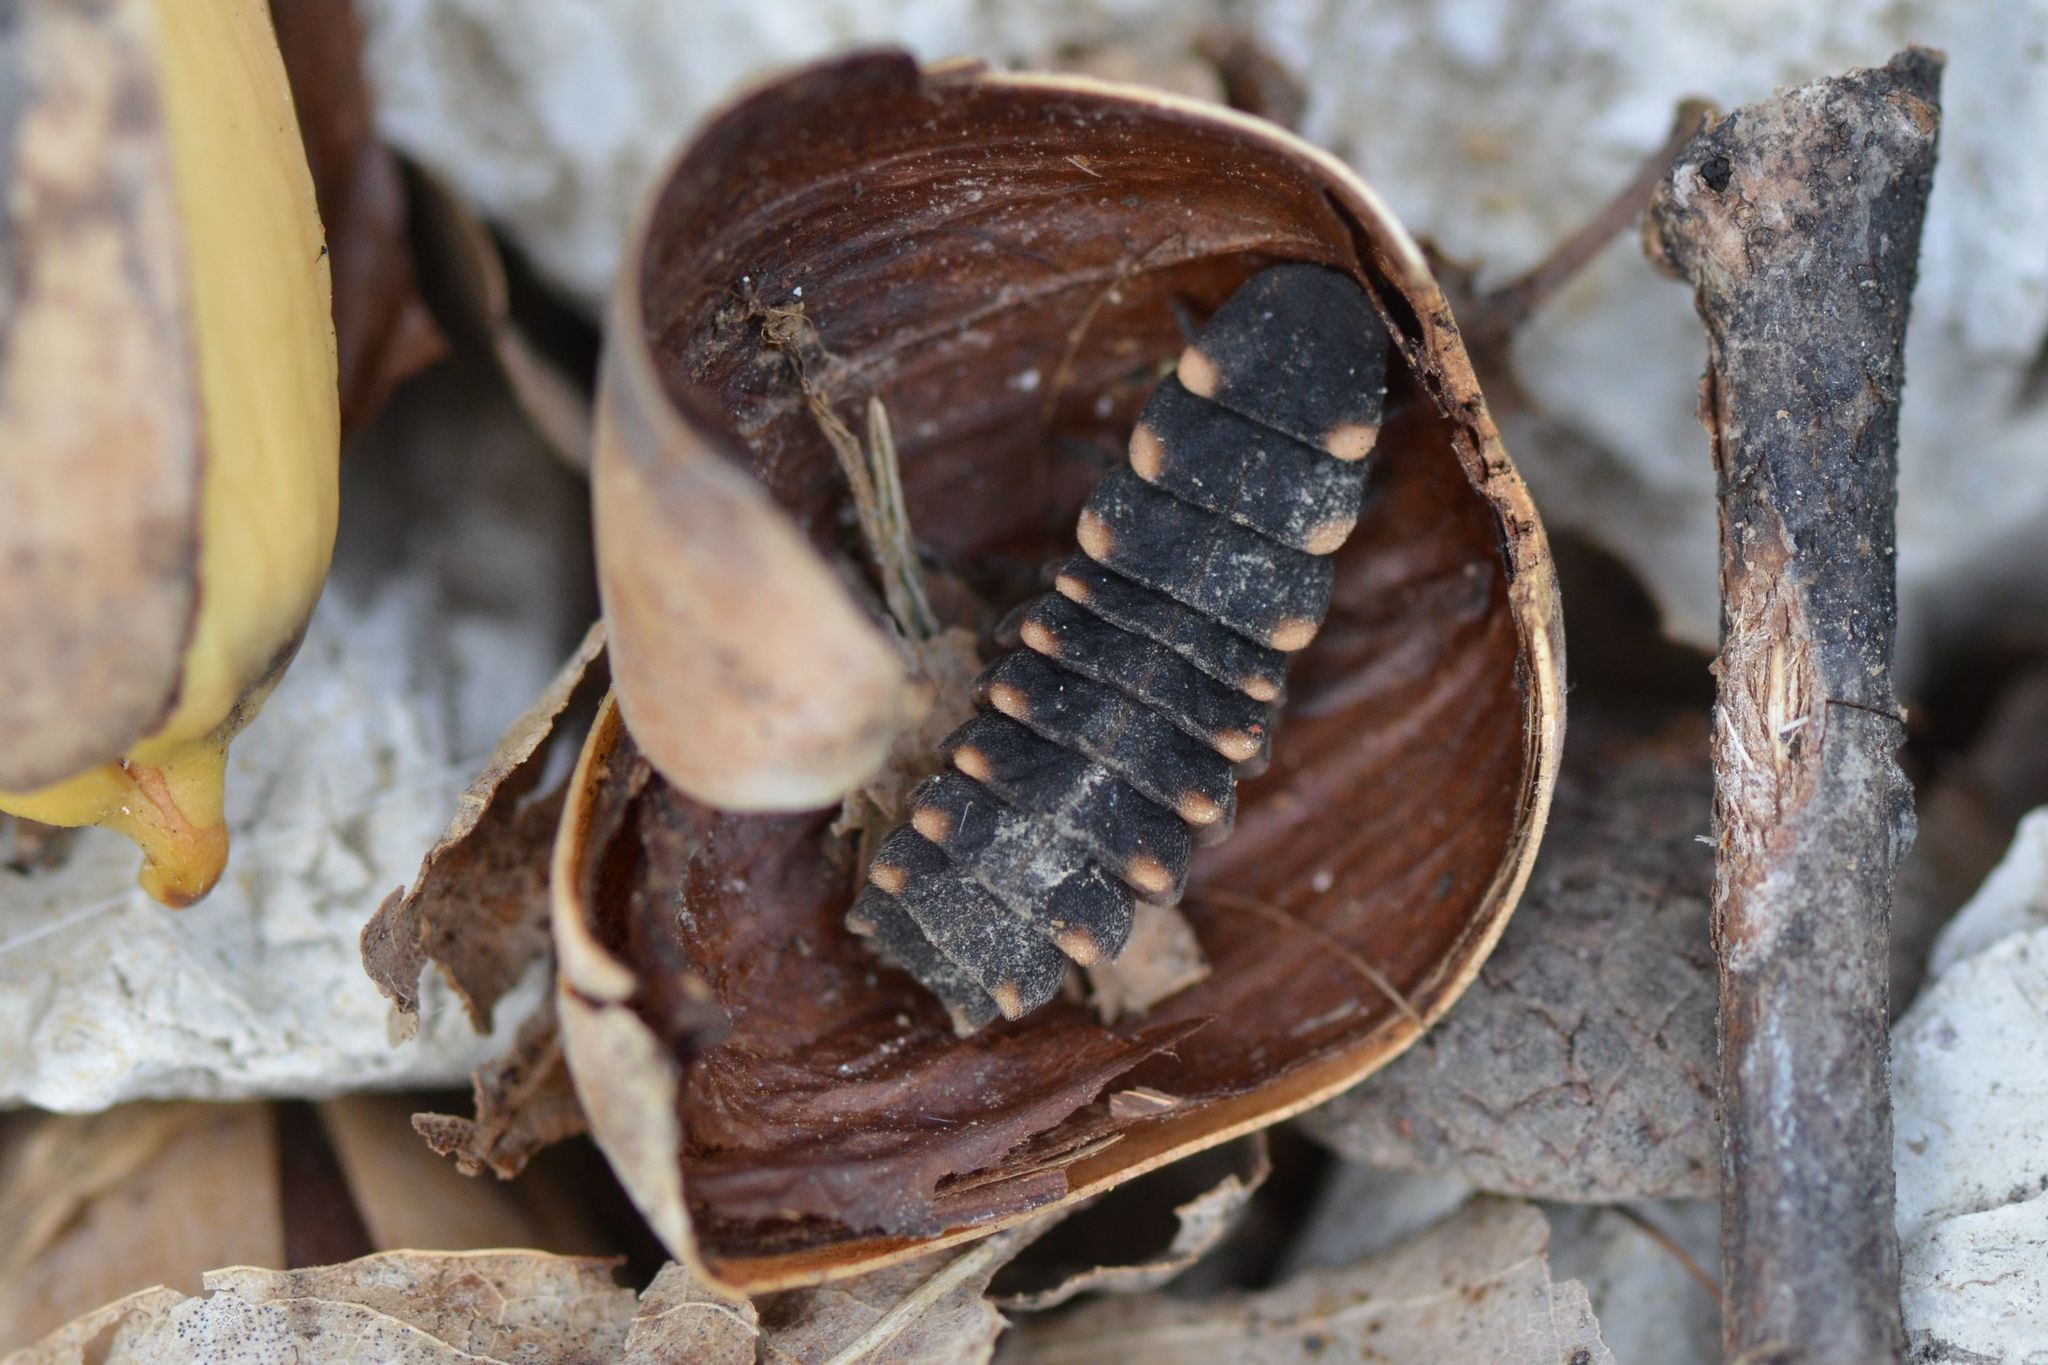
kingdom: Animalia
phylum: Arthropoda
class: Insecta
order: Coleoptera
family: Lampyridae
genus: Lampyris
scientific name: Lampyris noctiluca
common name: Glow-worm
